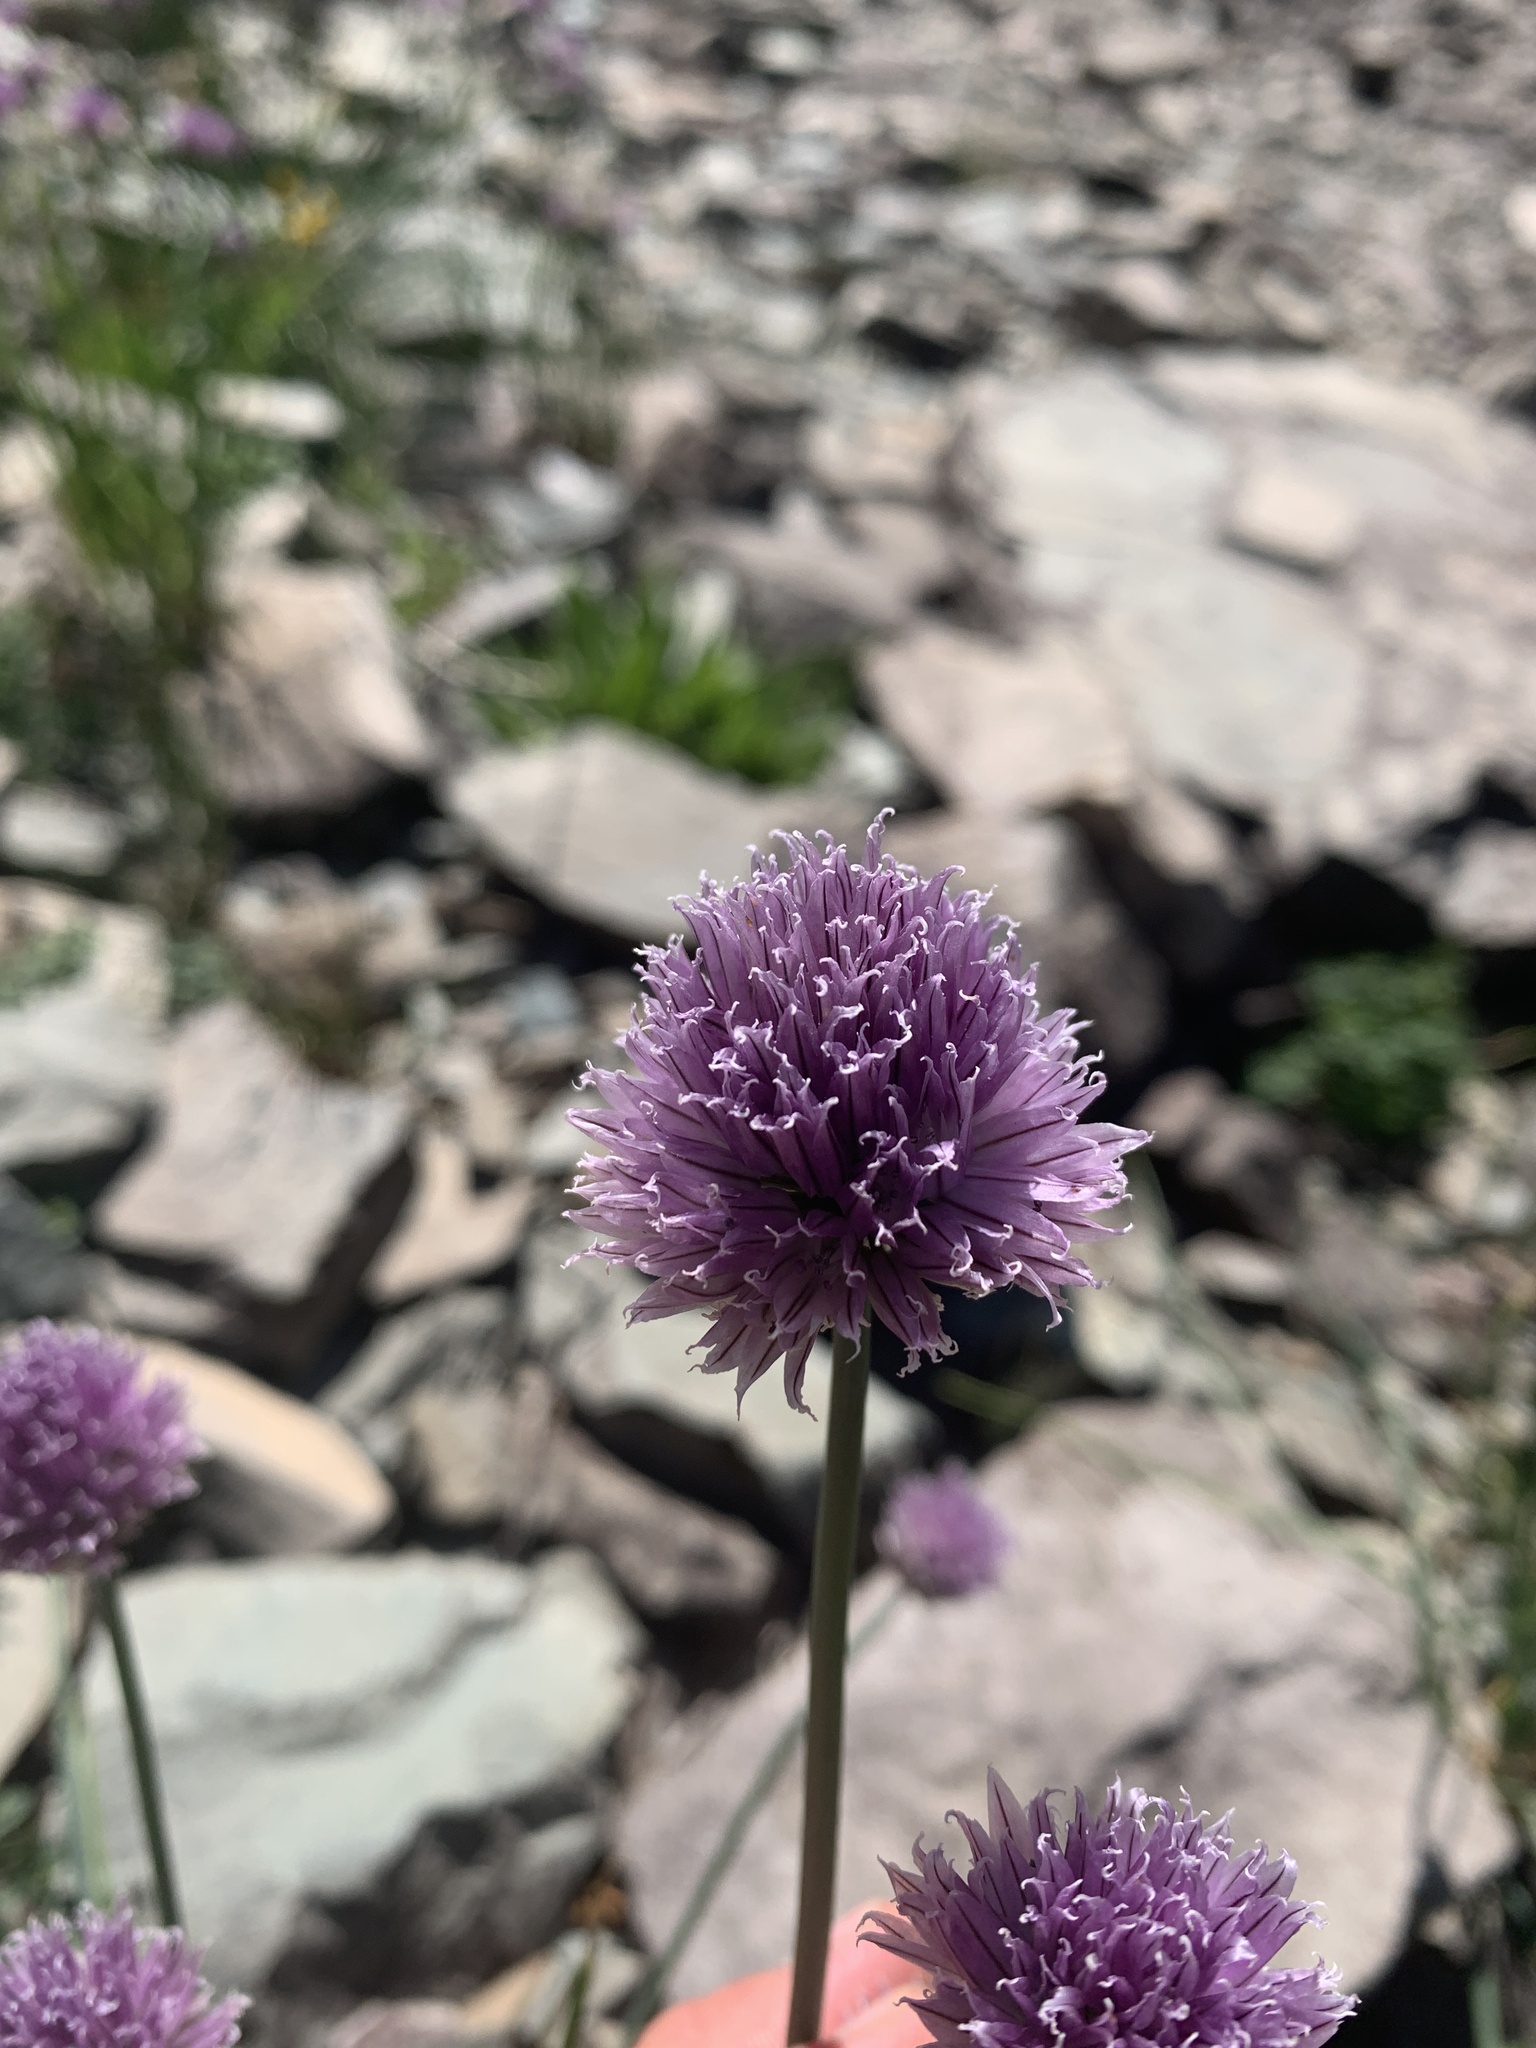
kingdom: Plantae
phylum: Tracheophyta
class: Liliopsida
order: Asparagales
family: Amaryllidaceae
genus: Allium
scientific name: Allium schoenoprasum
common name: Chives
